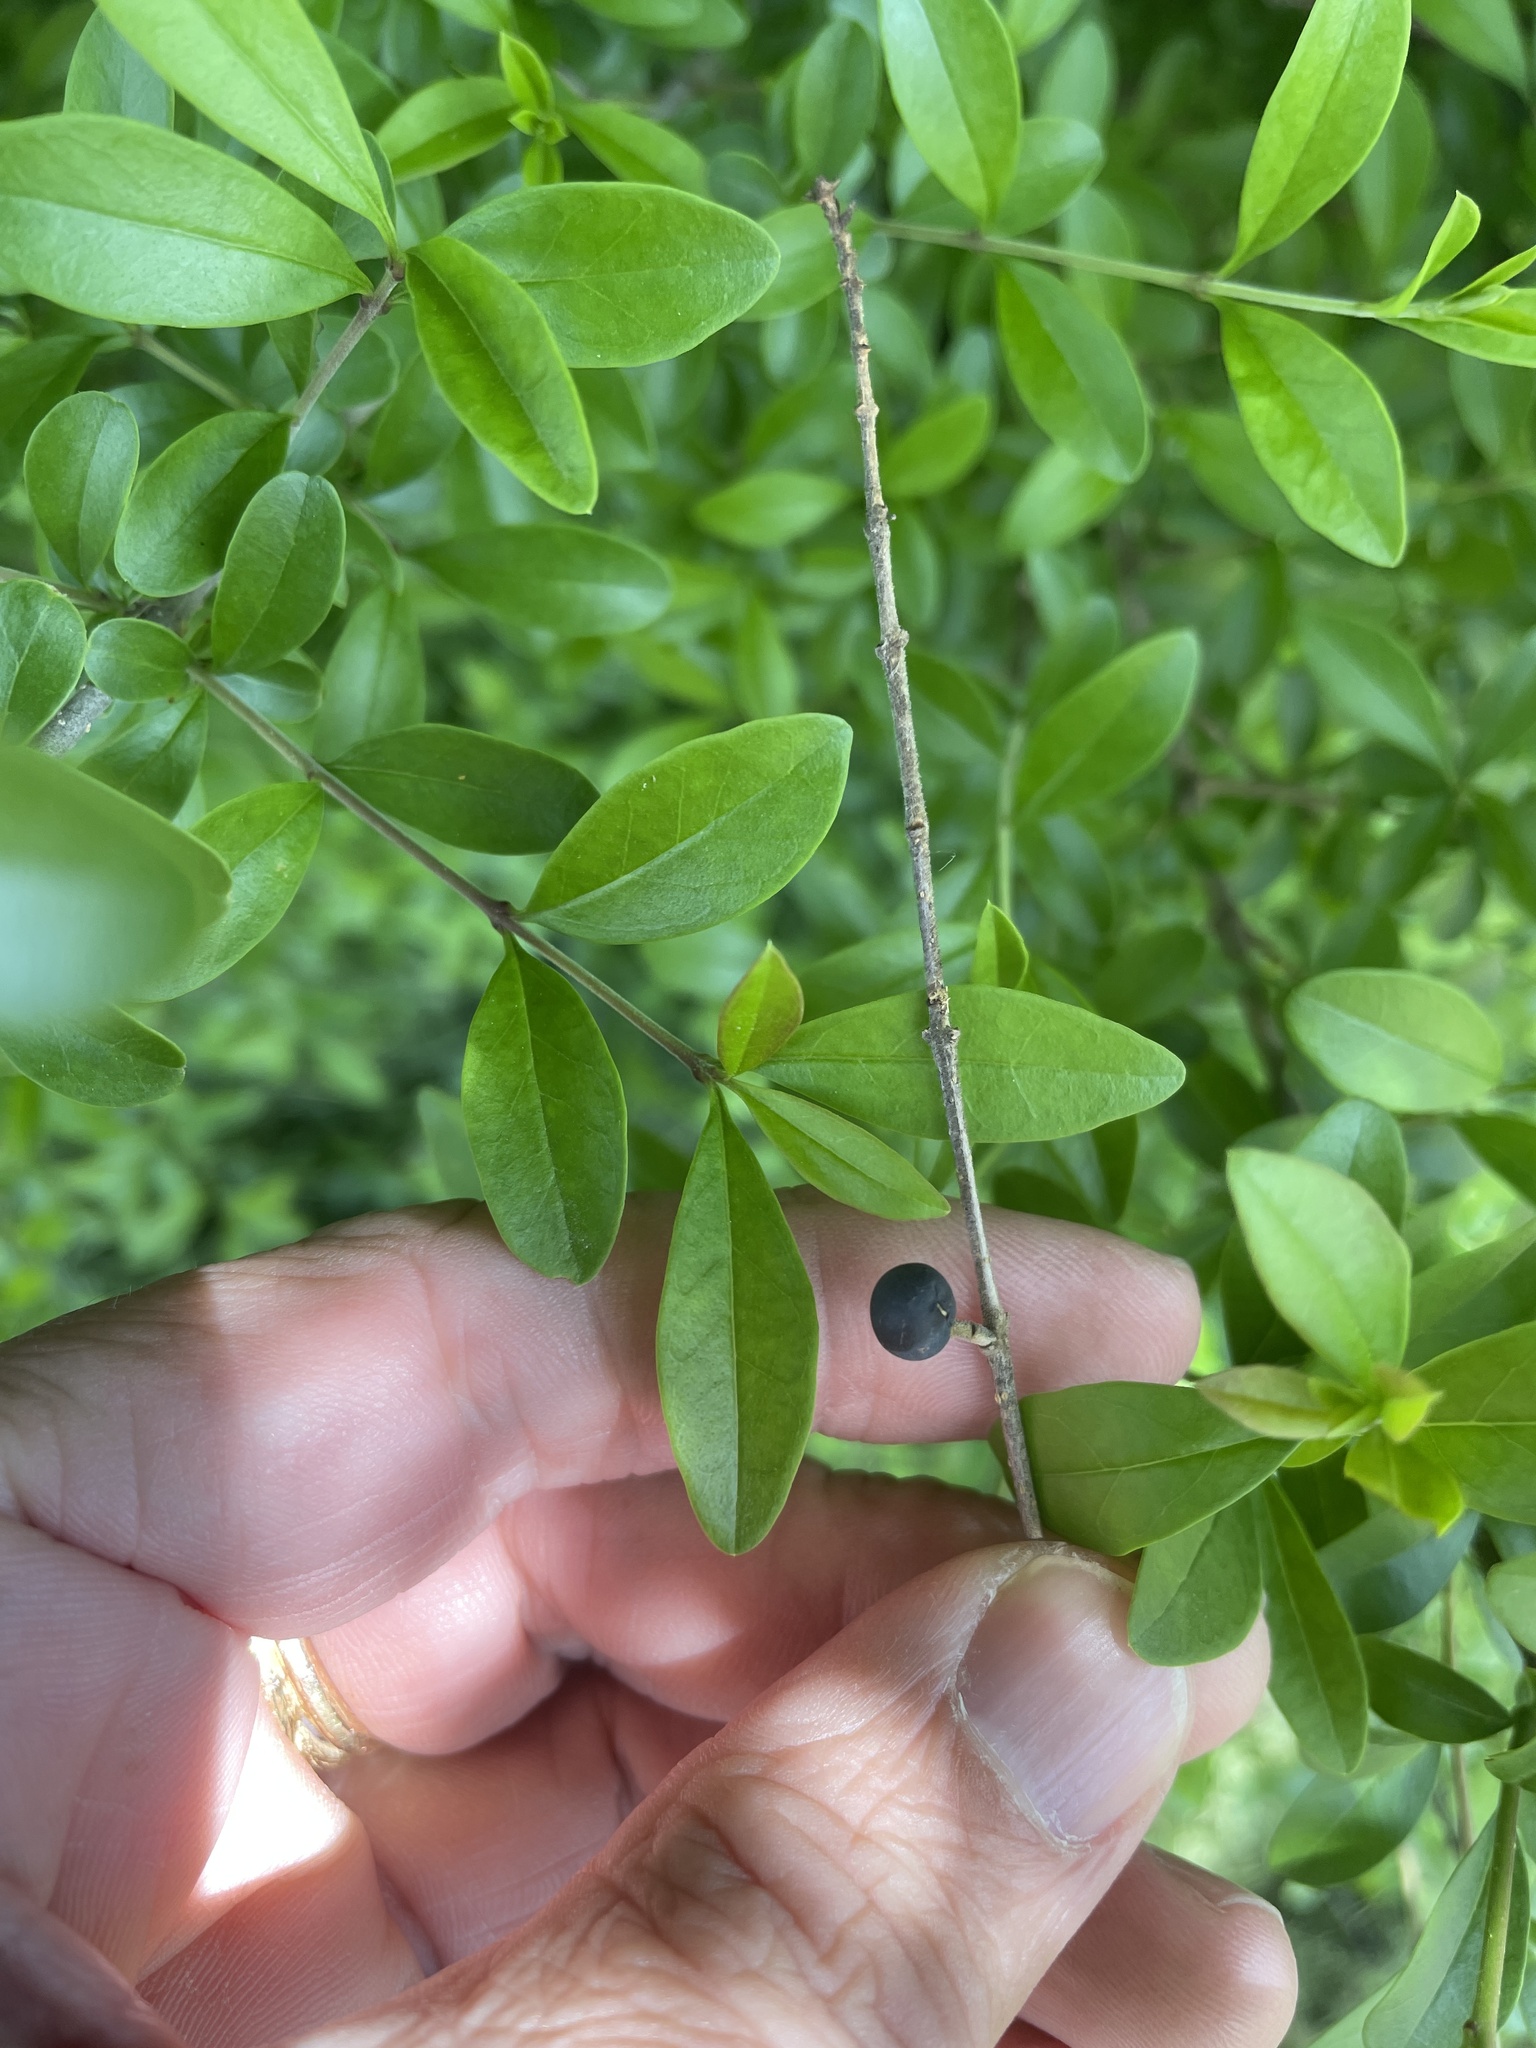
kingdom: Plantae
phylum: Tracheophyta
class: Magnoliopsida
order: Lamiales
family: Oleaceae
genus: Ligustrum
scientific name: Ligustrum quihoui
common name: Waxyleaf privet
